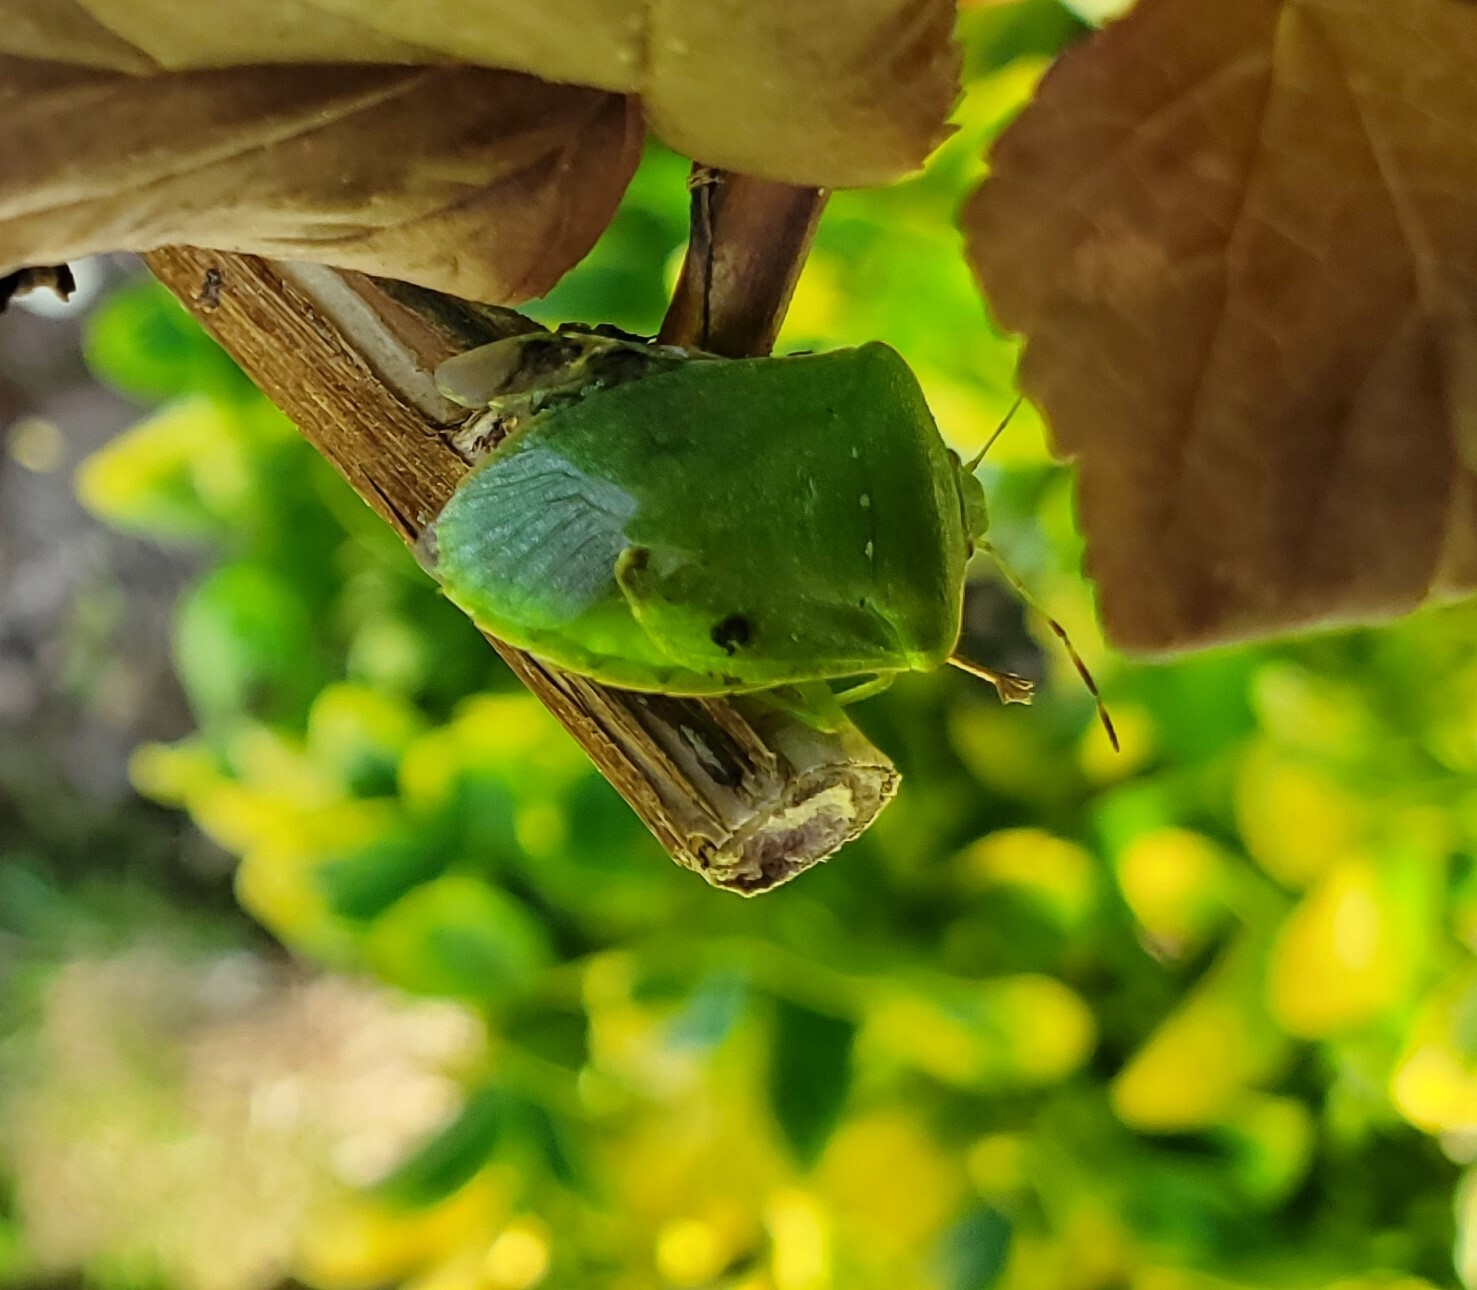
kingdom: Animalia
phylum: Arthropoda
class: Insecta
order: Hemiptera
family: Pentatomidae
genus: Nezara
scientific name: Nezara viridula
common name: Southern green stink bug
